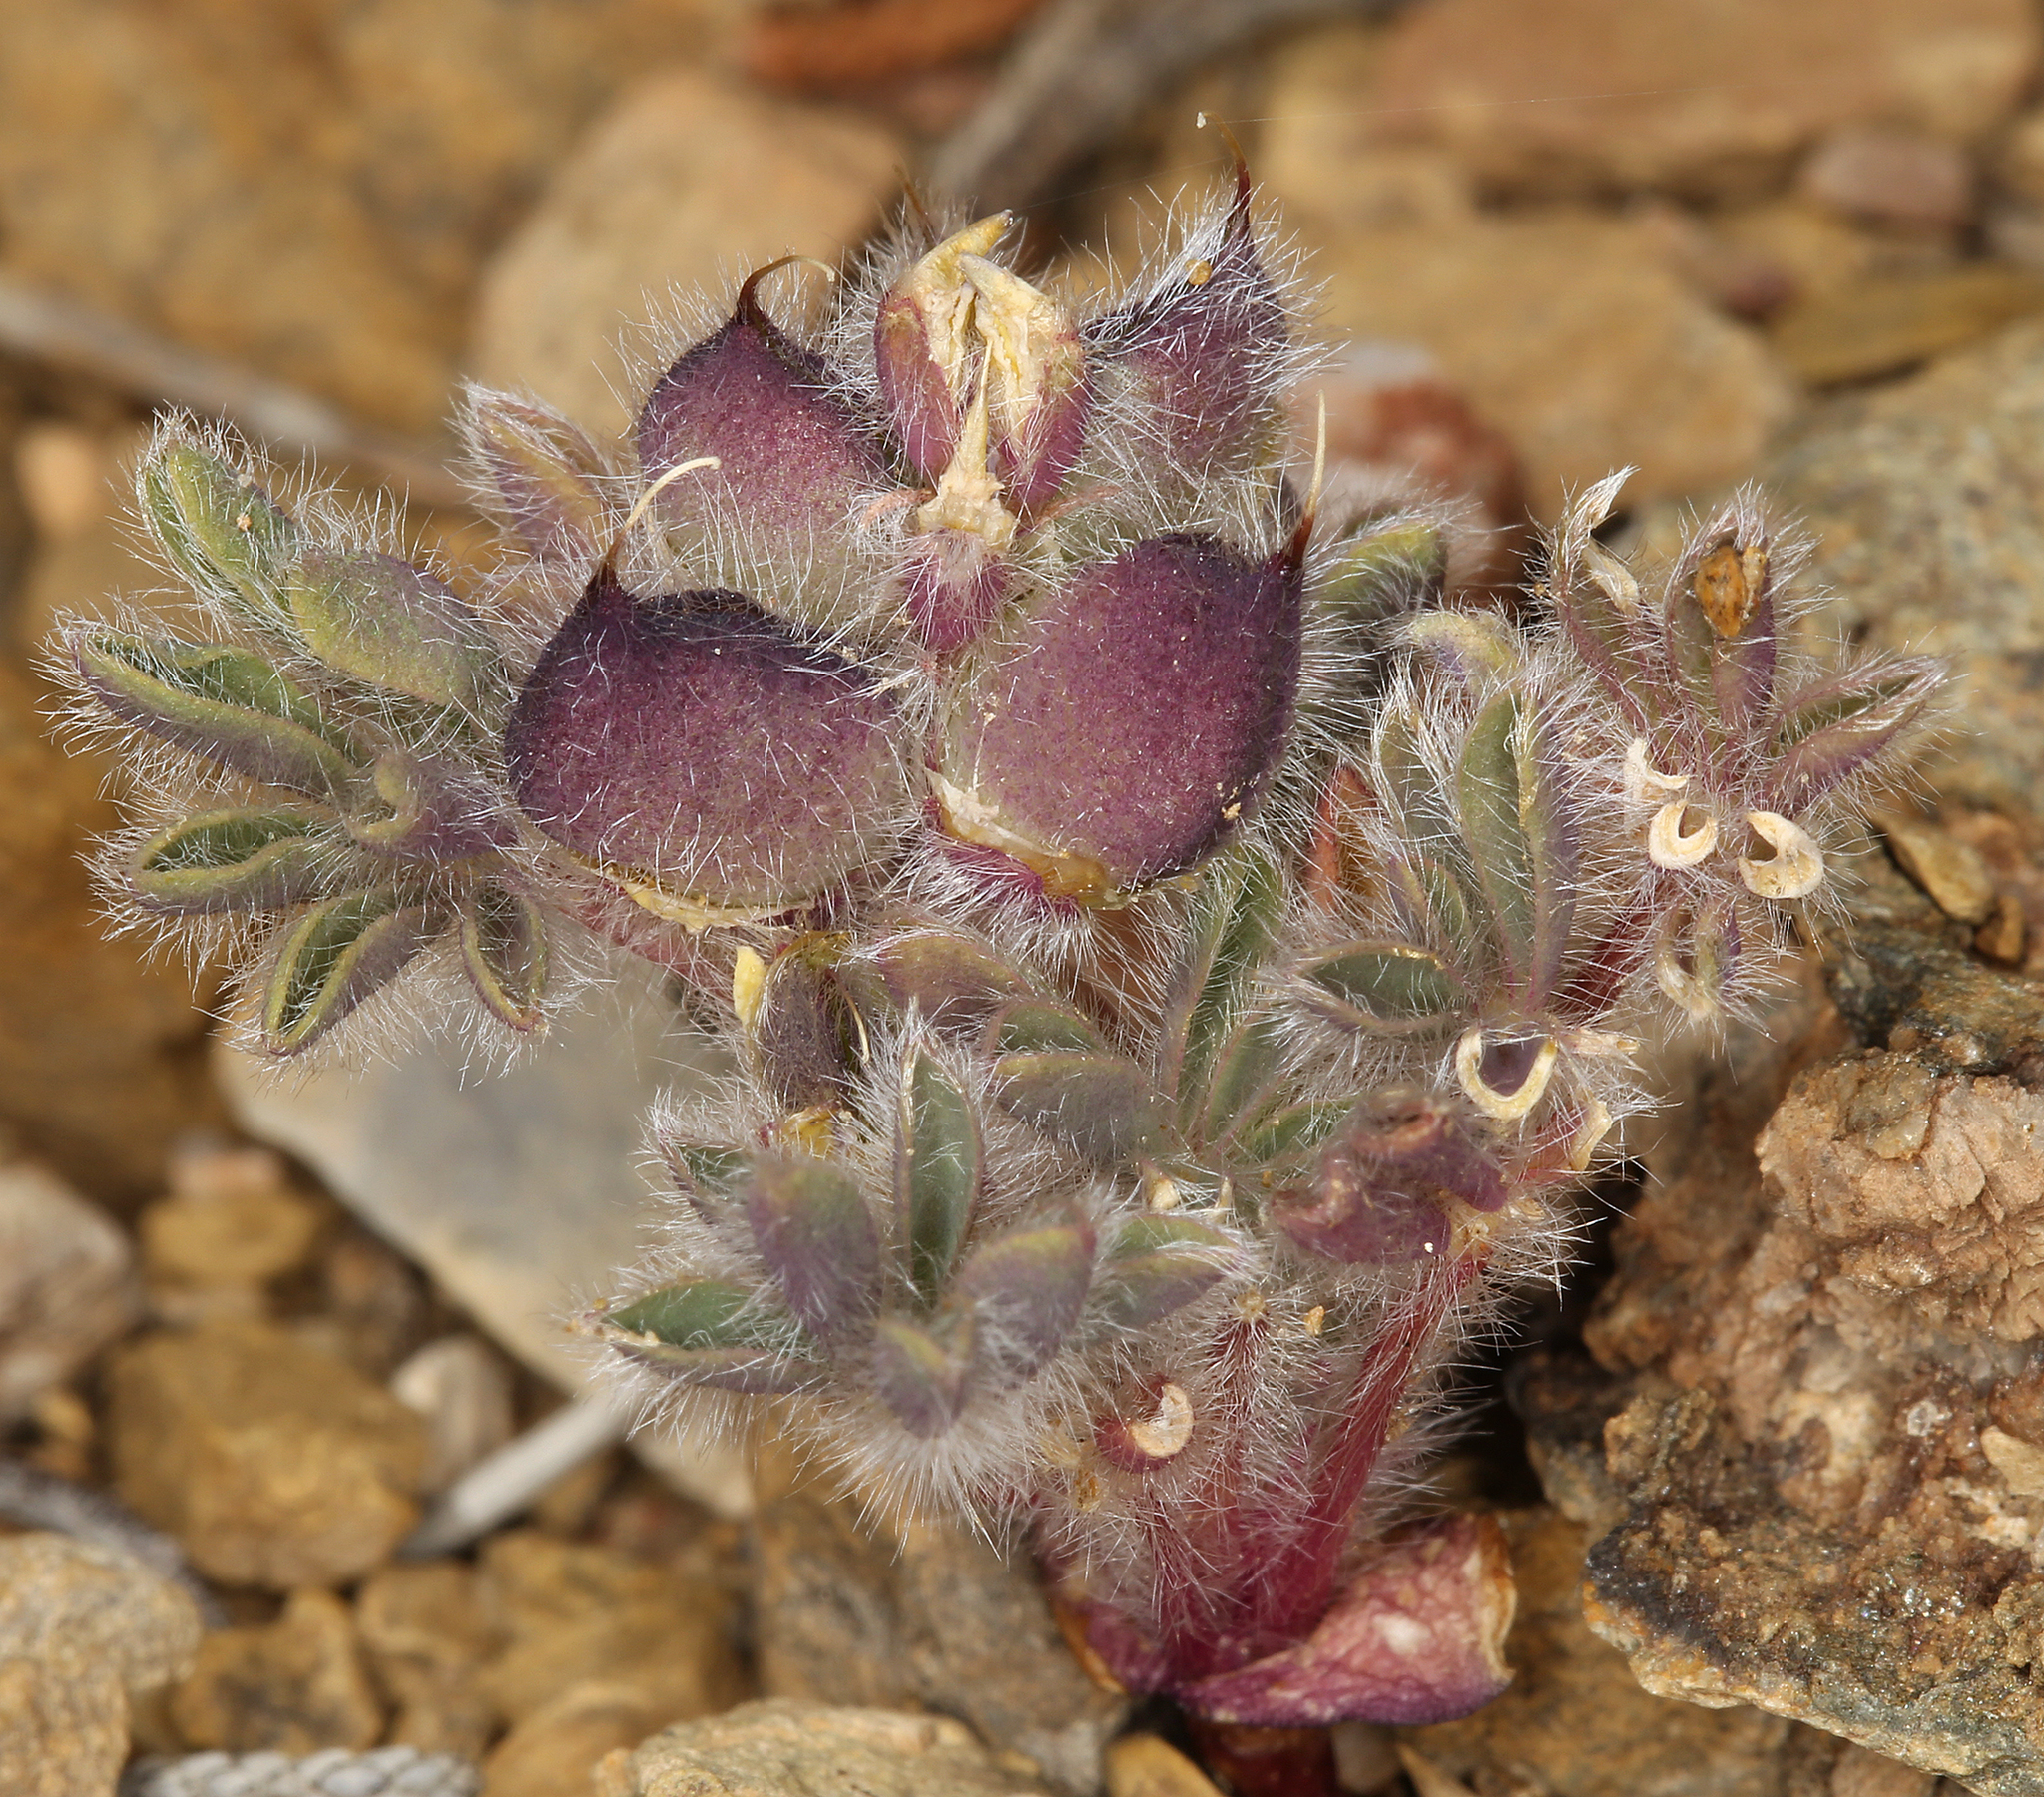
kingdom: Plantae
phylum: Tracheophyta
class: Magnoliopsida
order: Fabales
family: Fabaceae
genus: Lupinus
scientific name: Lupinus brevicaulis
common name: Sand lupine
